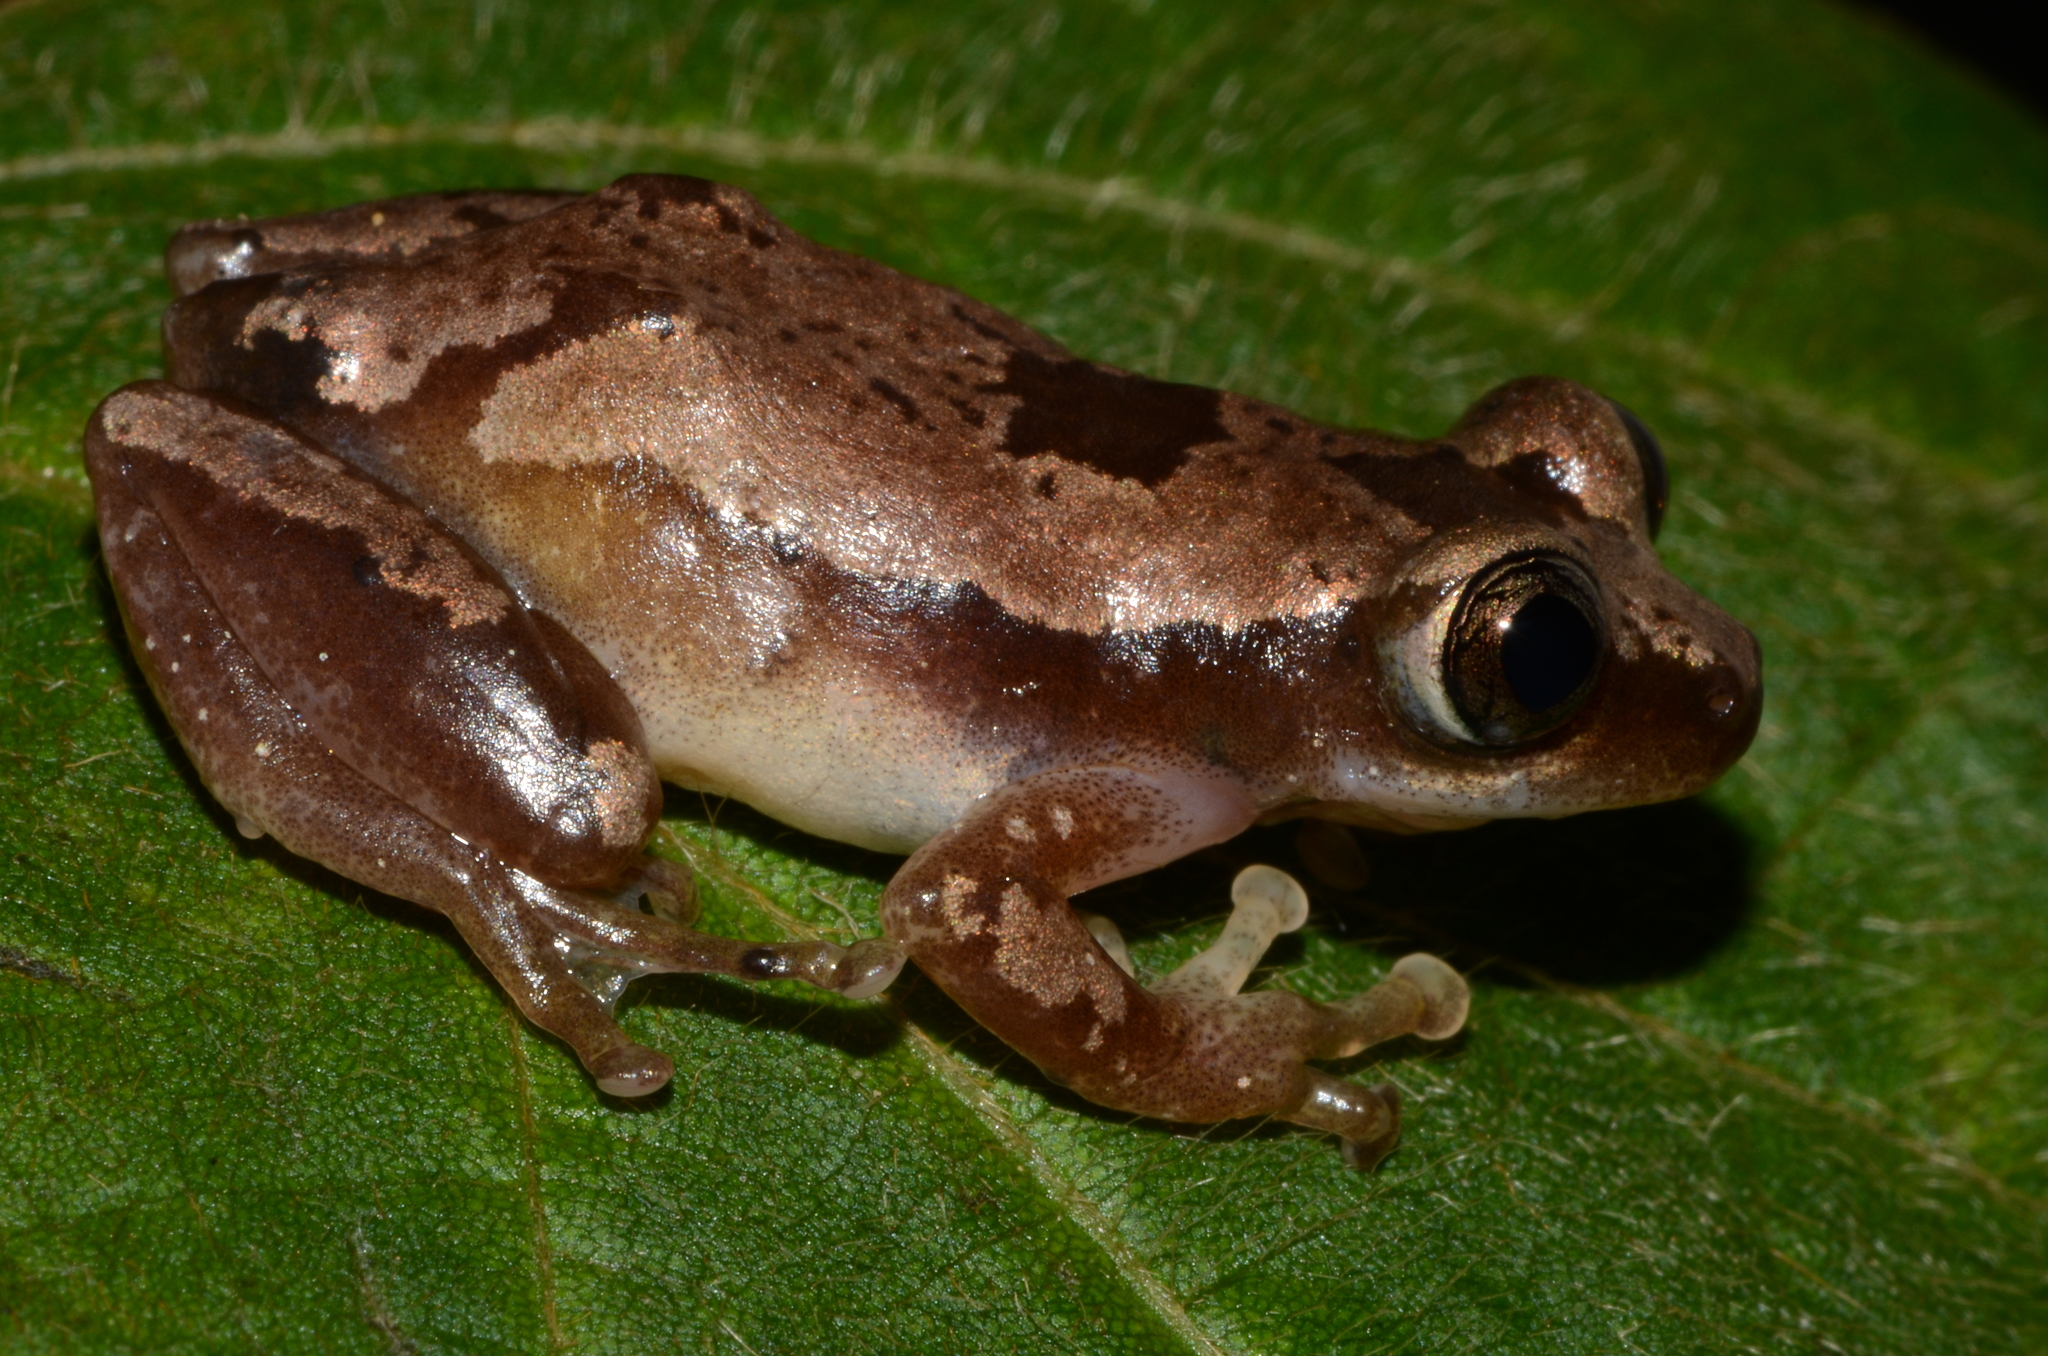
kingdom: Animalia
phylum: Chordata
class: Amphibia
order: Anura
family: Hyperoliidae
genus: Afrixalus
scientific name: Afrixalus dorsalis
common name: Striped spiny reed frog
